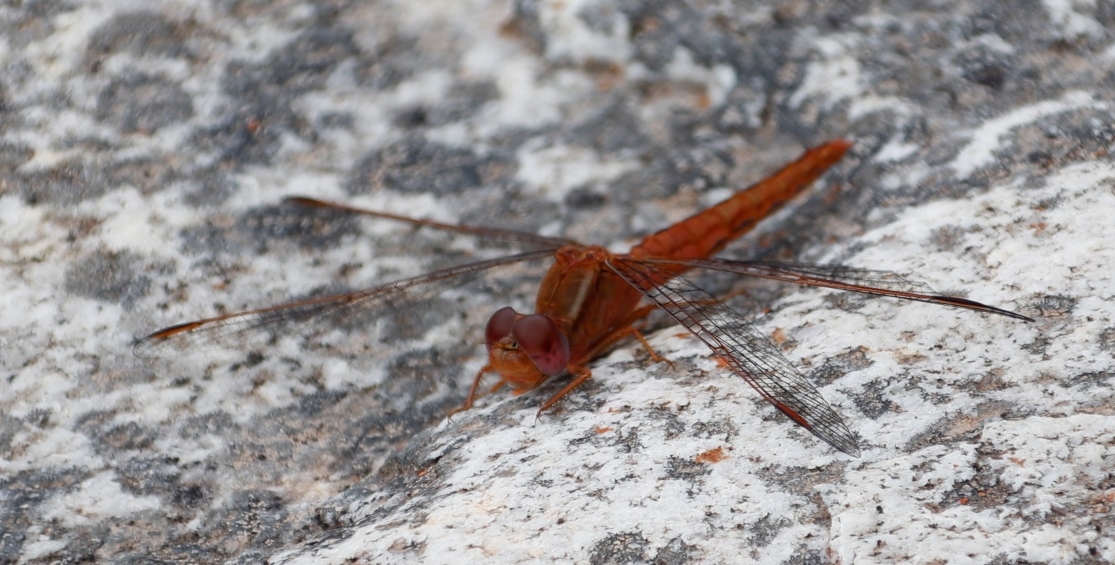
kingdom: Animalia
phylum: Arthropoda
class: Insecta
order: Odonata
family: Libellulidae
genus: Crocothemis
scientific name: Crocothemis sanguinolenta
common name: Little scarlet
